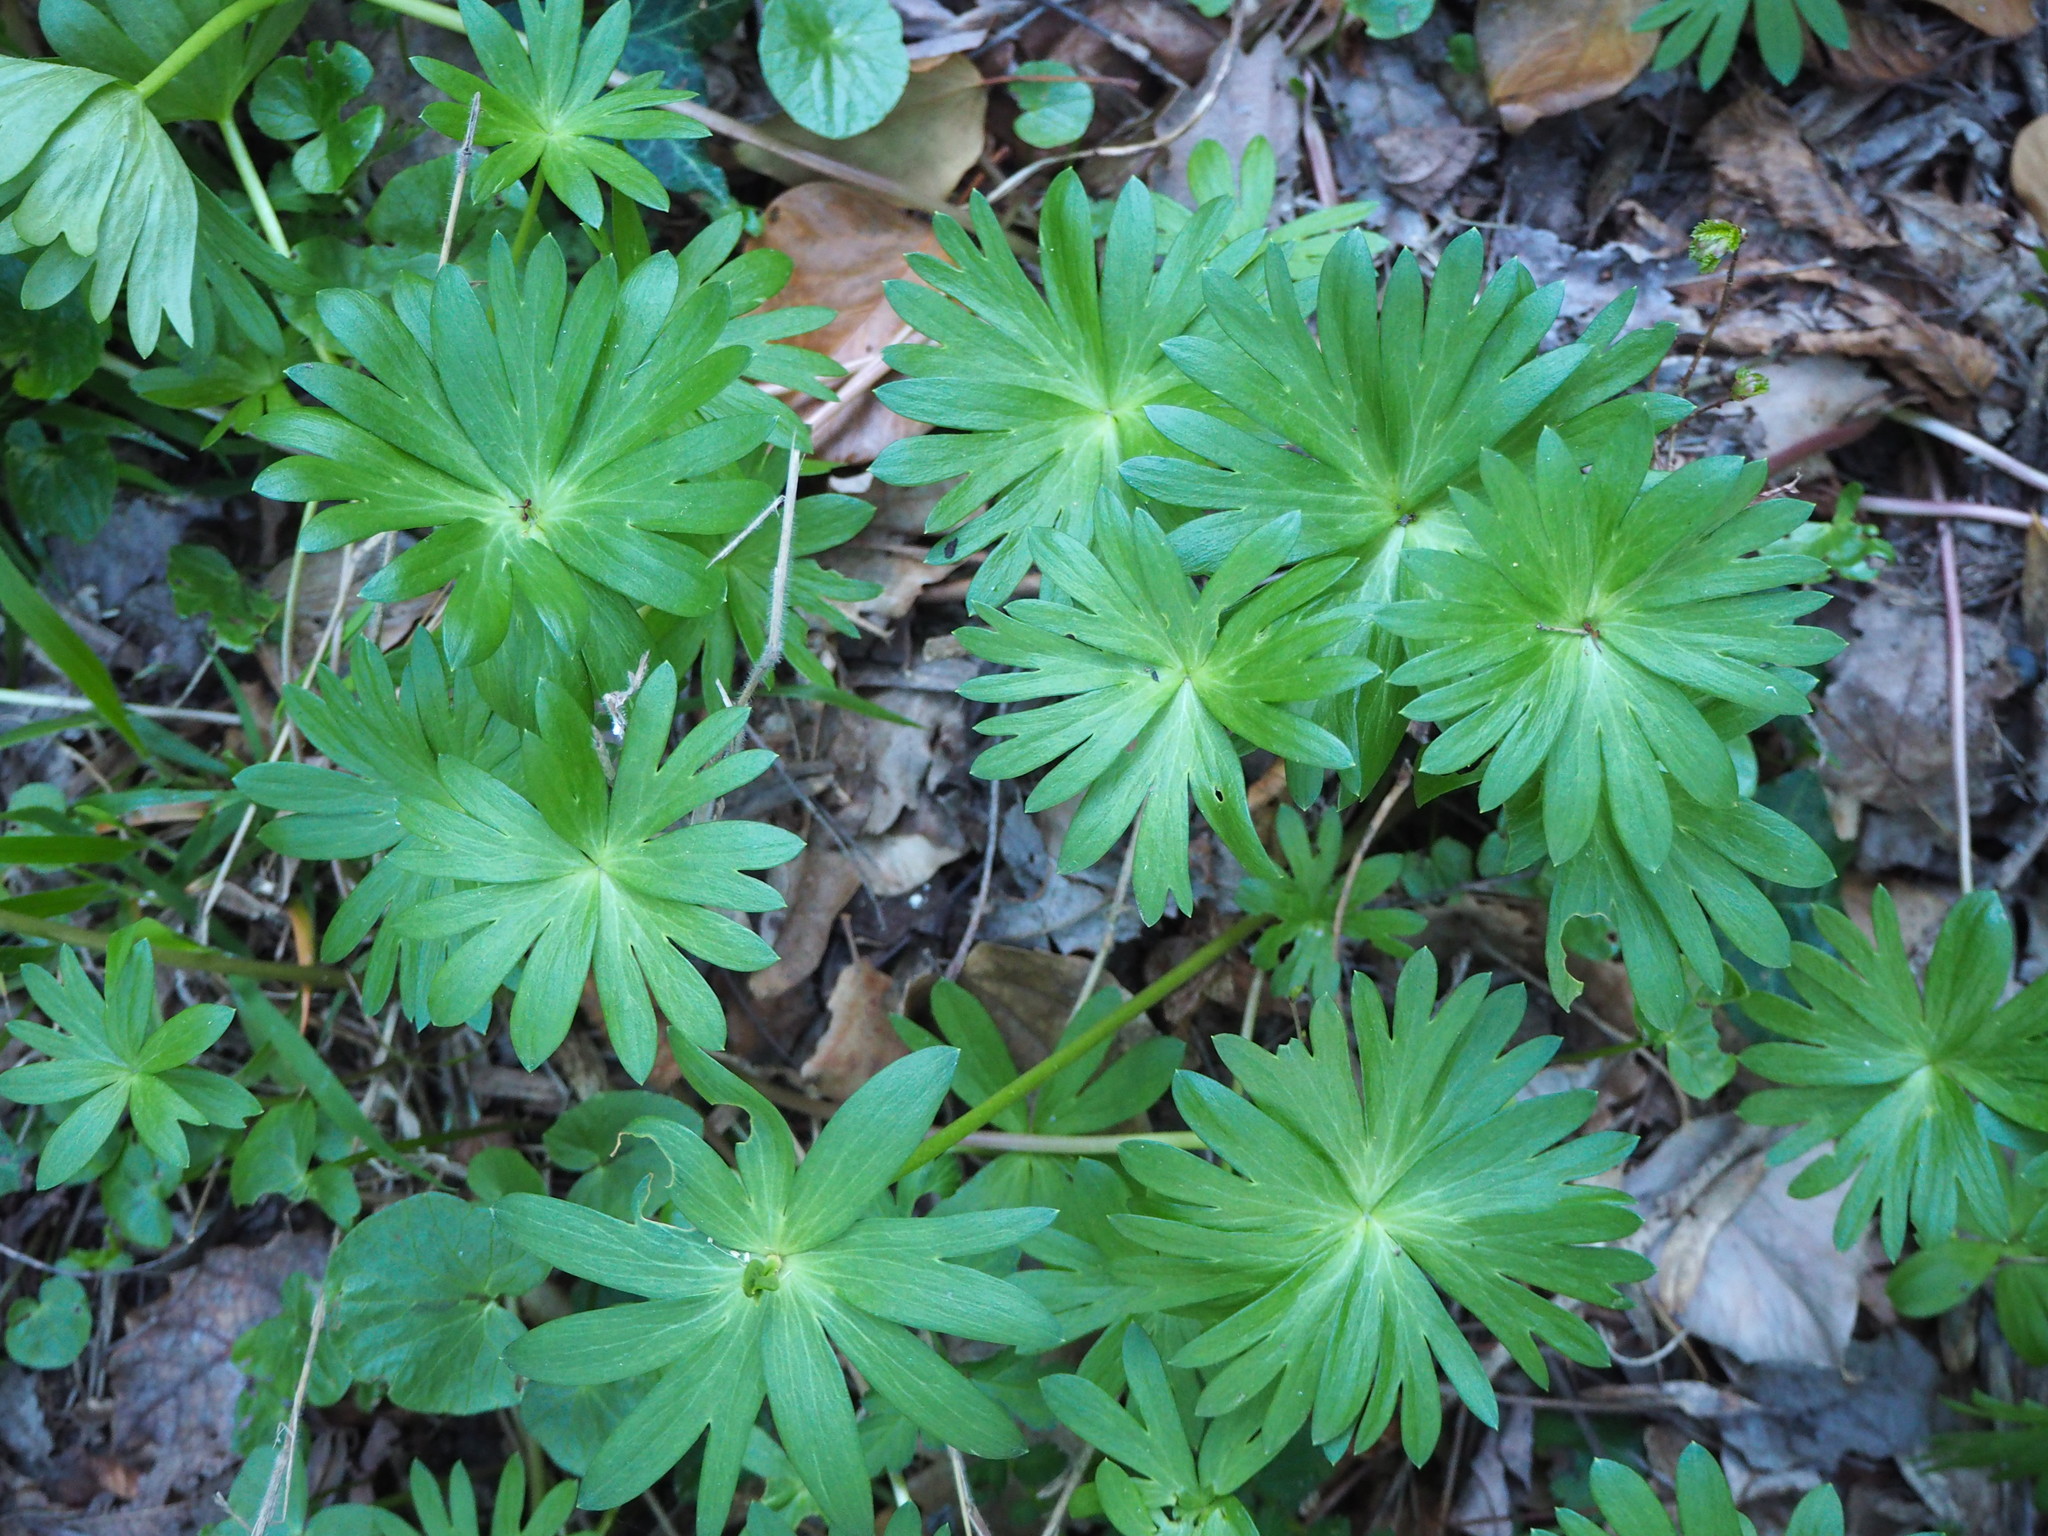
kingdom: Plantae
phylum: Tracheophyta
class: Magnoliopsida
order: Ranunculales
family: Ranunculaceae
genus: Eranthis
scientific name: Eranthis hyemalis
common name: Winter aconite
